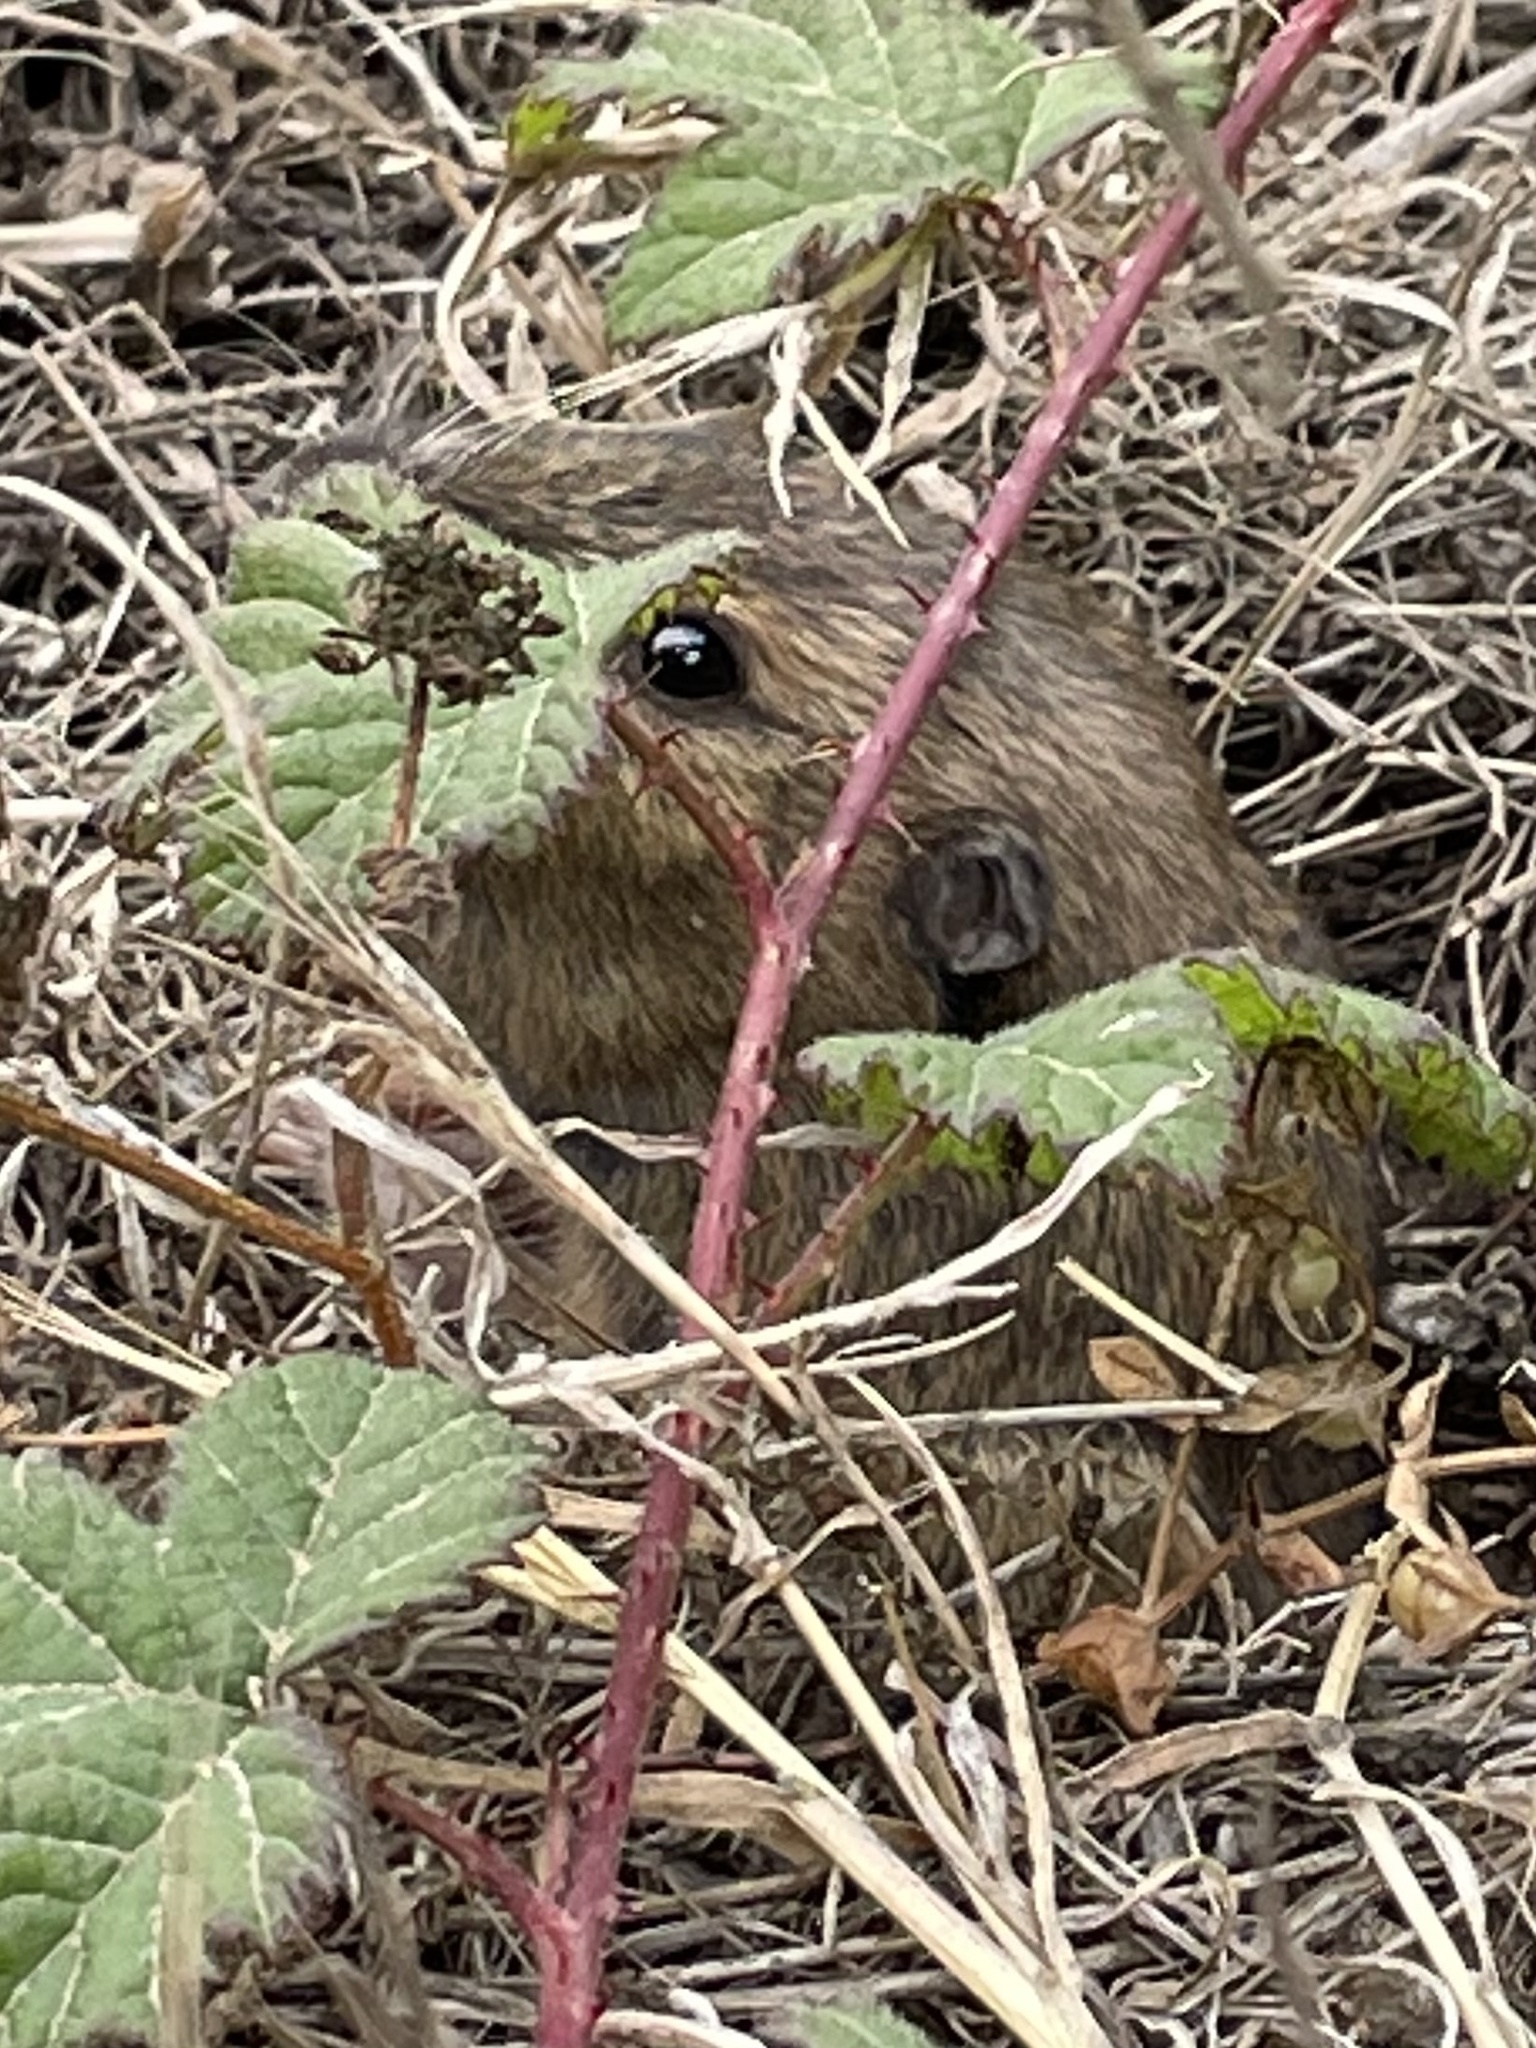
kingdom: Animalia
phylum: Chordata
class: Mammalia
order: Rodentia
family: Geomyidae
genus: Thomomys
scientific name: Thomomys bottae
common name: Botta's pocket gopher
